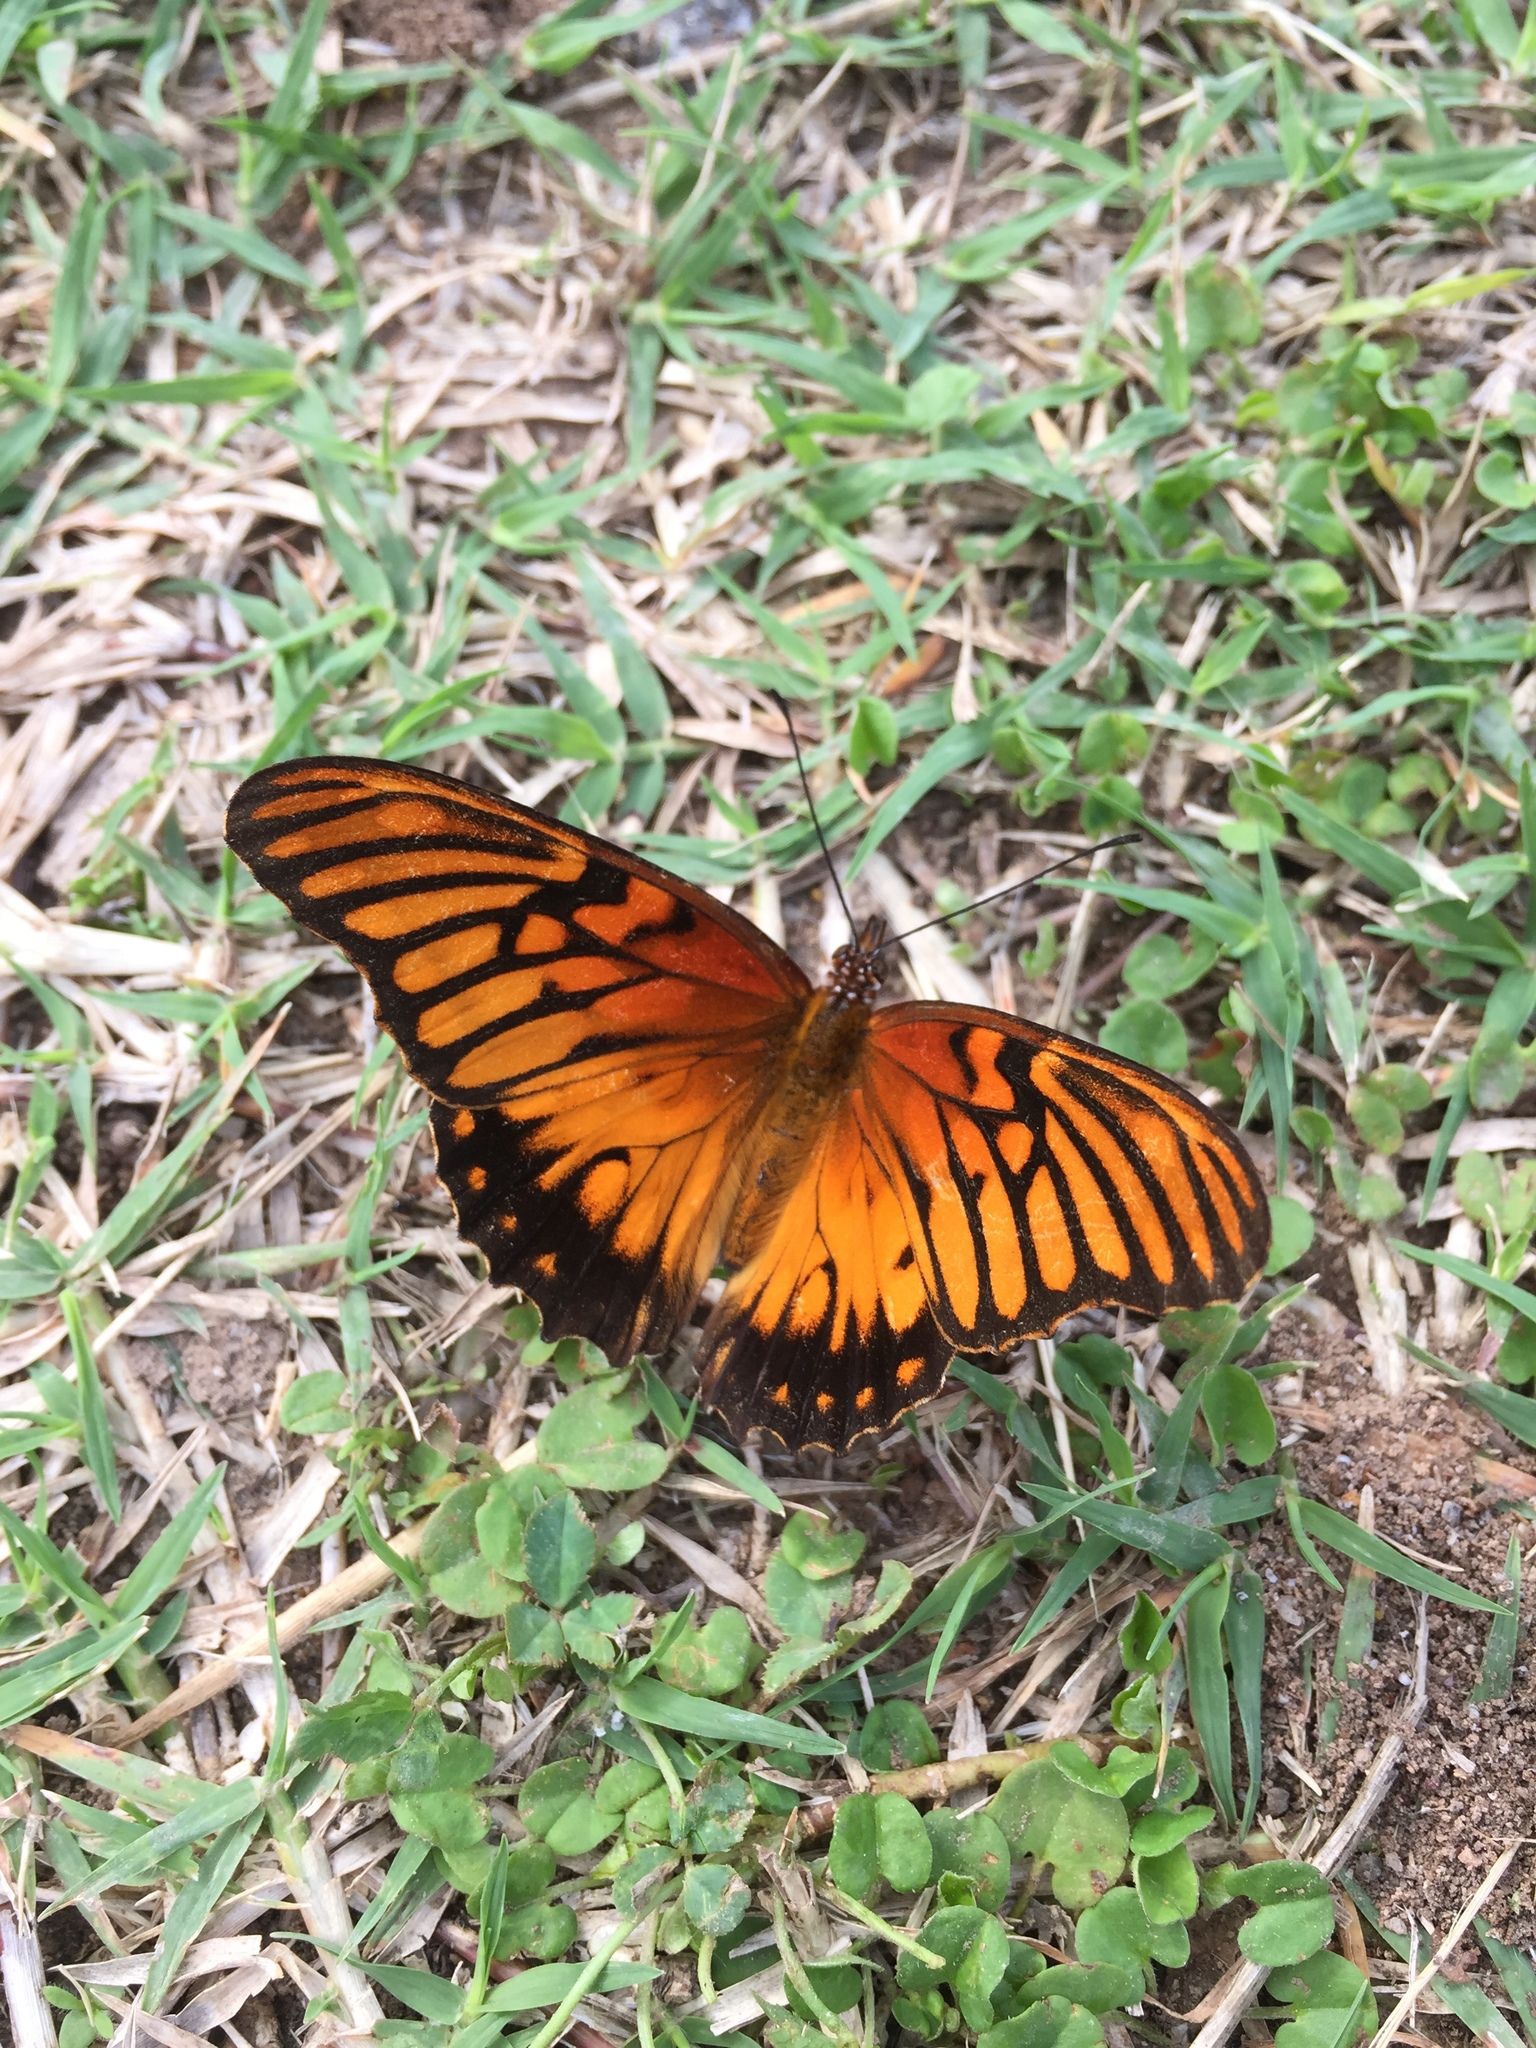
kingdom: Animalia
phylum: Arthropoda
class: Insecta
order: Lepidoptera
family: Nymphalidae
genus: Dione
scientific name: Dione moneta
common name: Mexican silverspot
